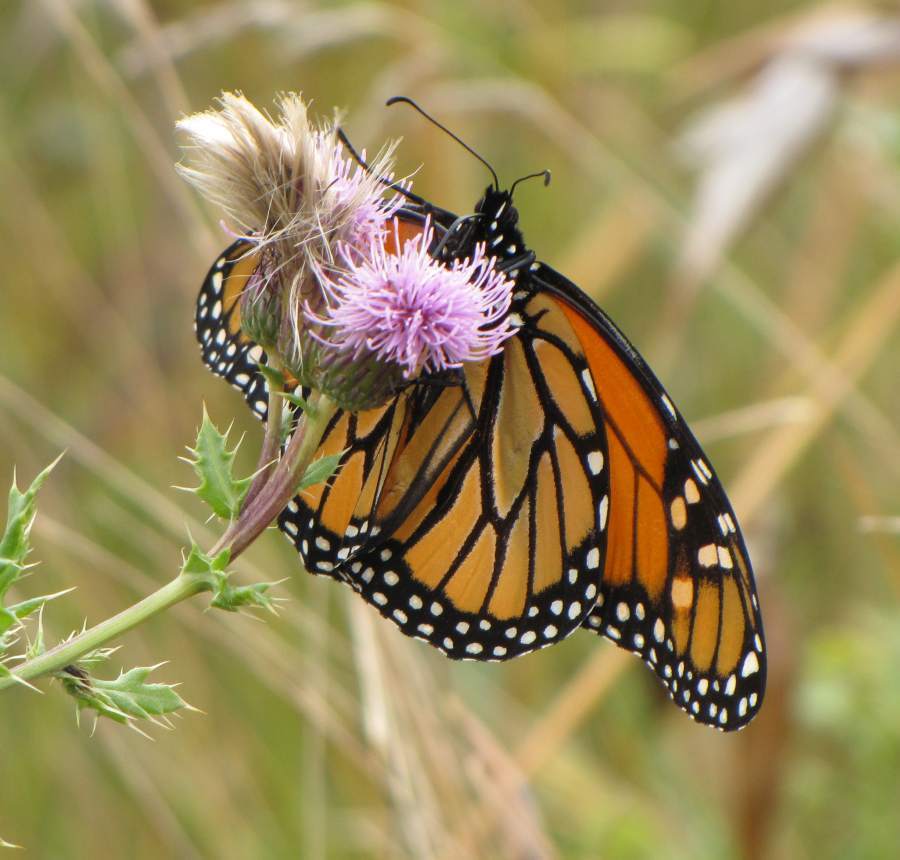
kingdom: Animalia
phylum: Arthropoda
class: Insecta
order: Lepidoptera
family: Nymphalidae
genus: Danaus
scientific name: Danaus plexippus
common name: Monarch
